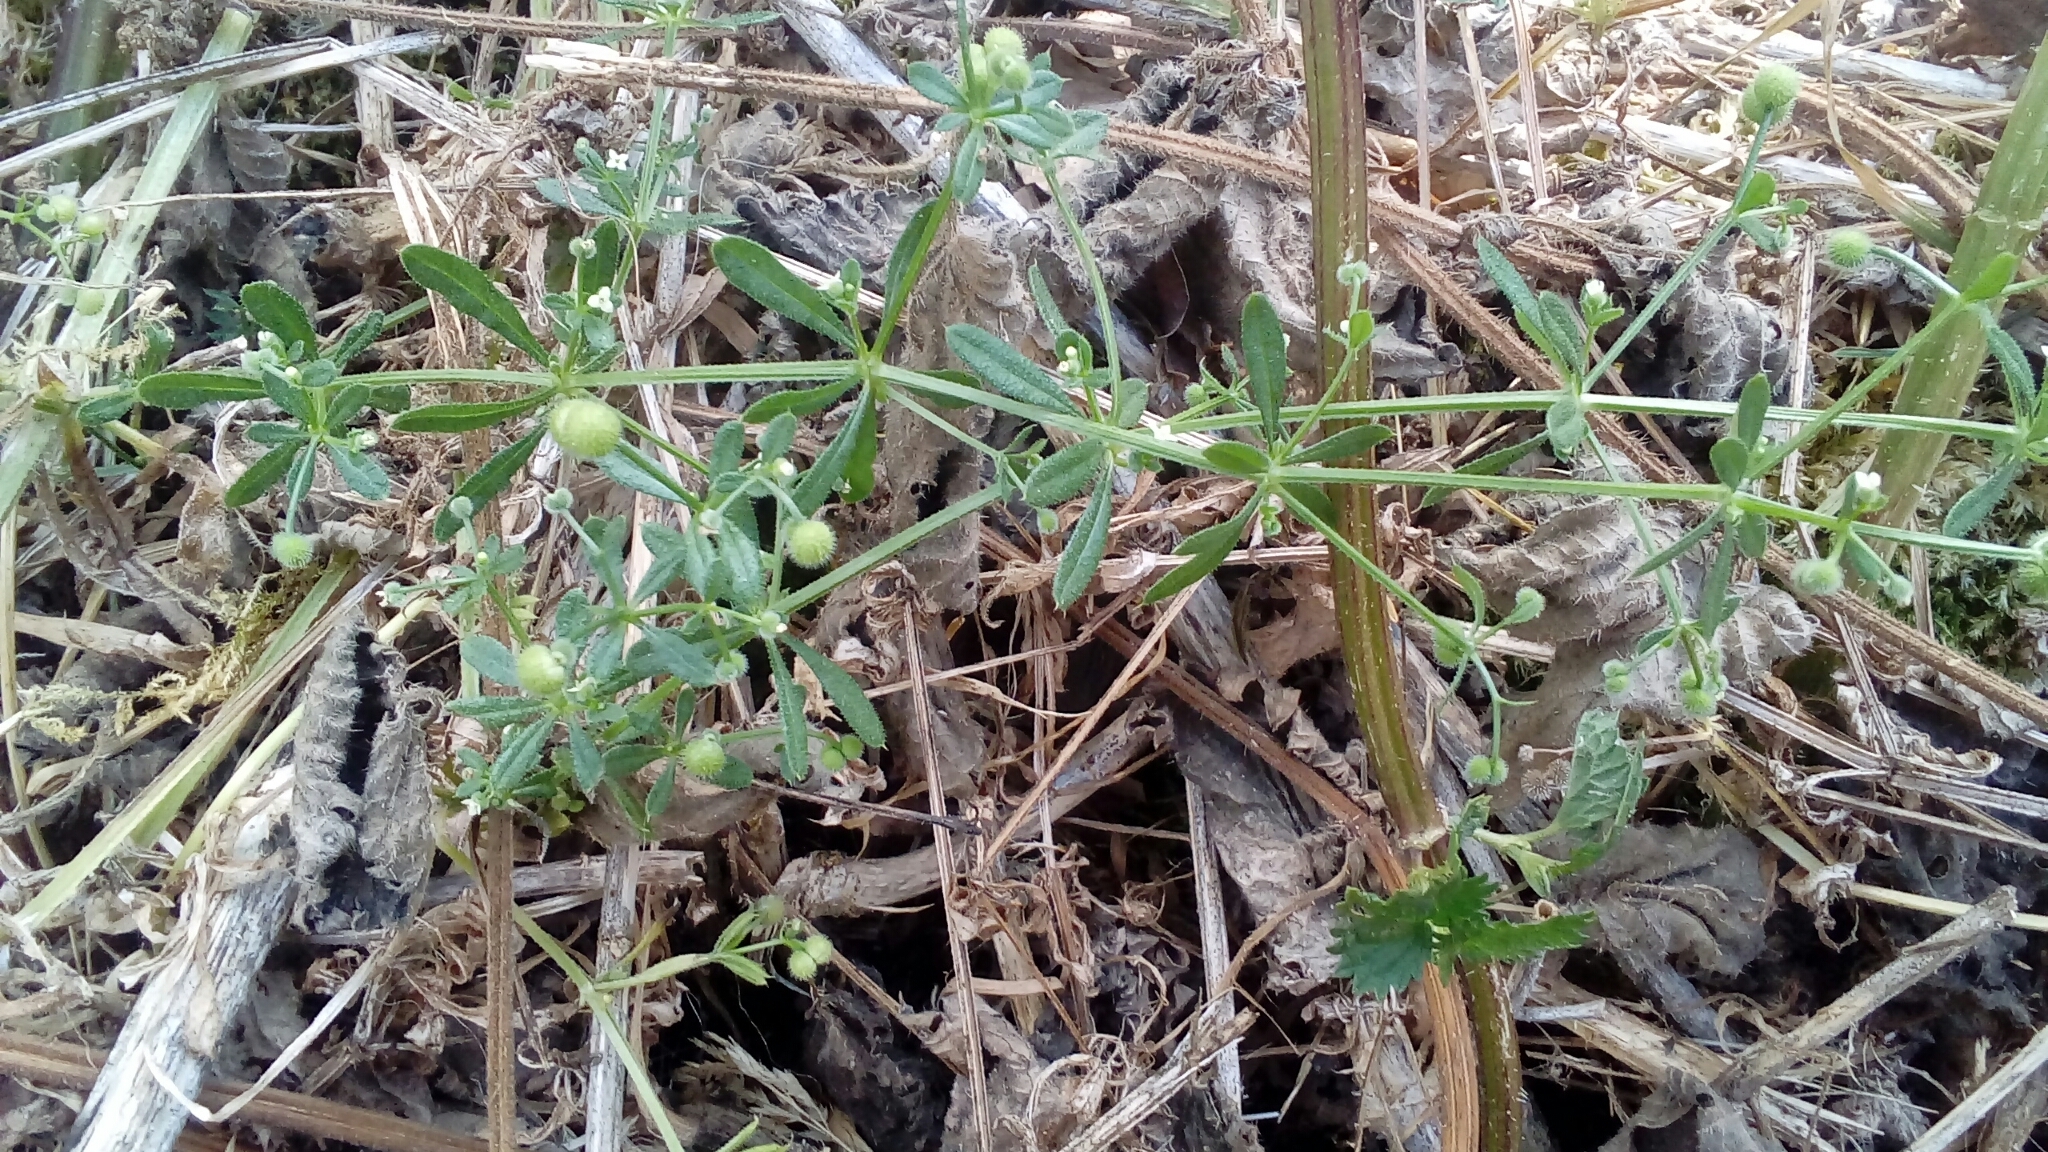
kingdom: Plantae
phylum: Tracheophyta
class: Magnoliopsida
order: Gentianales
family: Rubiaceae
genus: Galium
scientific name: Galium aparine
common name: Cleavers
